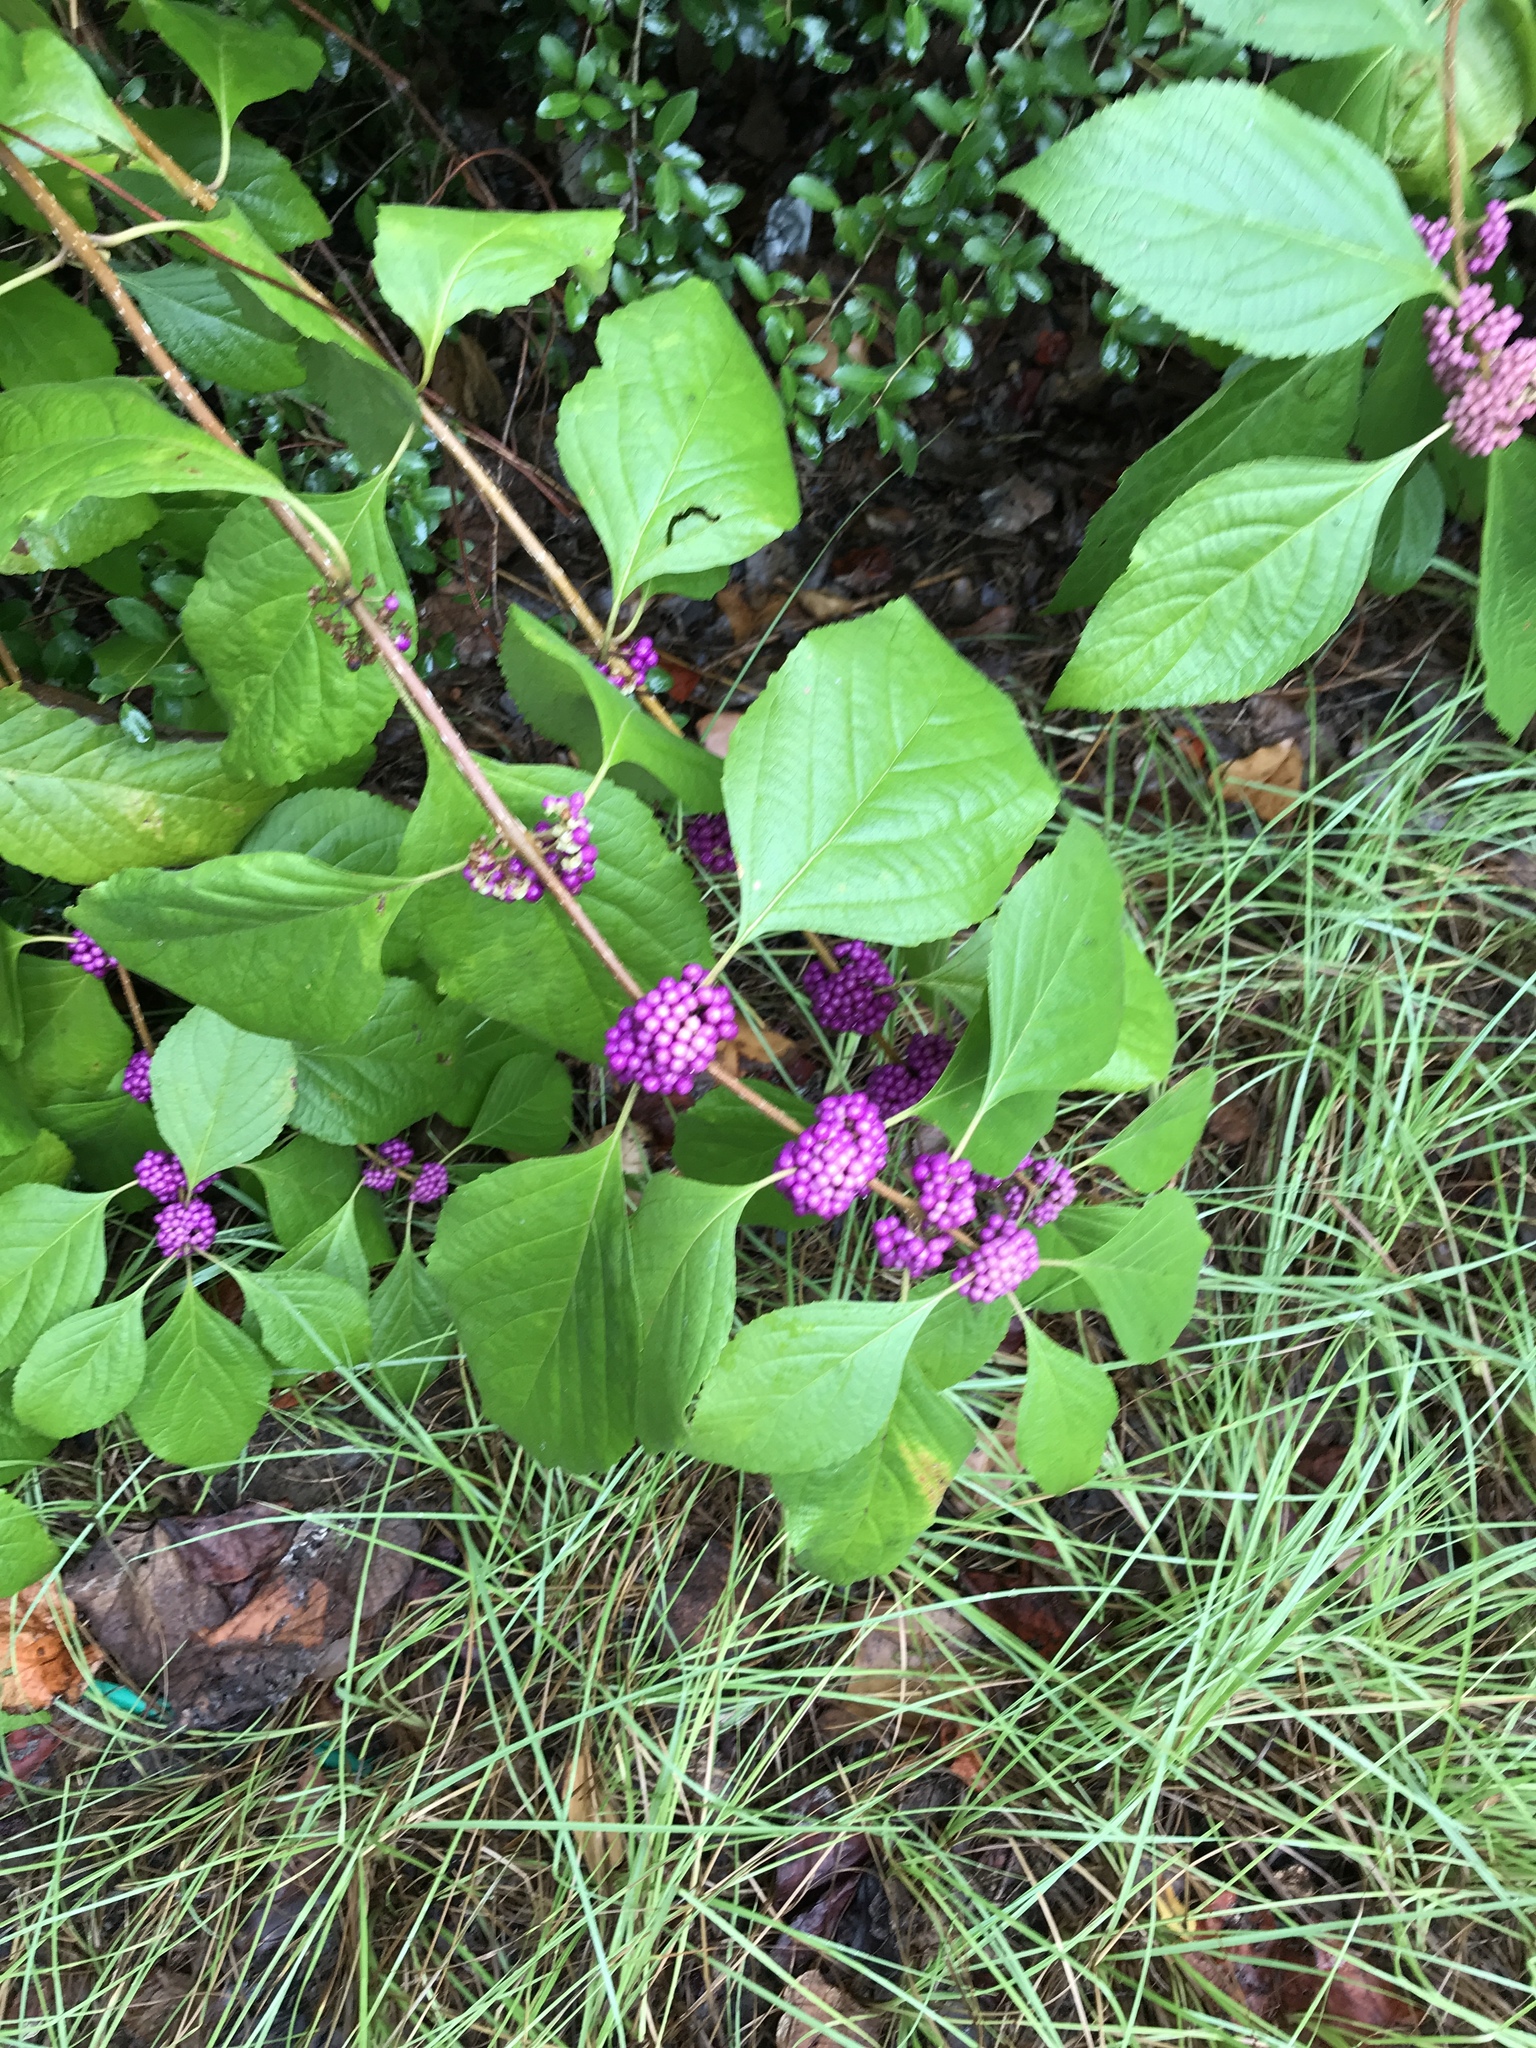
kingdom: Plantae
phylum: Tracheophyta
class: Magnoliopsida
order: Lamiales
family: Lamiaceae
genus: Callicarpa
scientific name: Callicarpa americana
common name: American beautyberry
